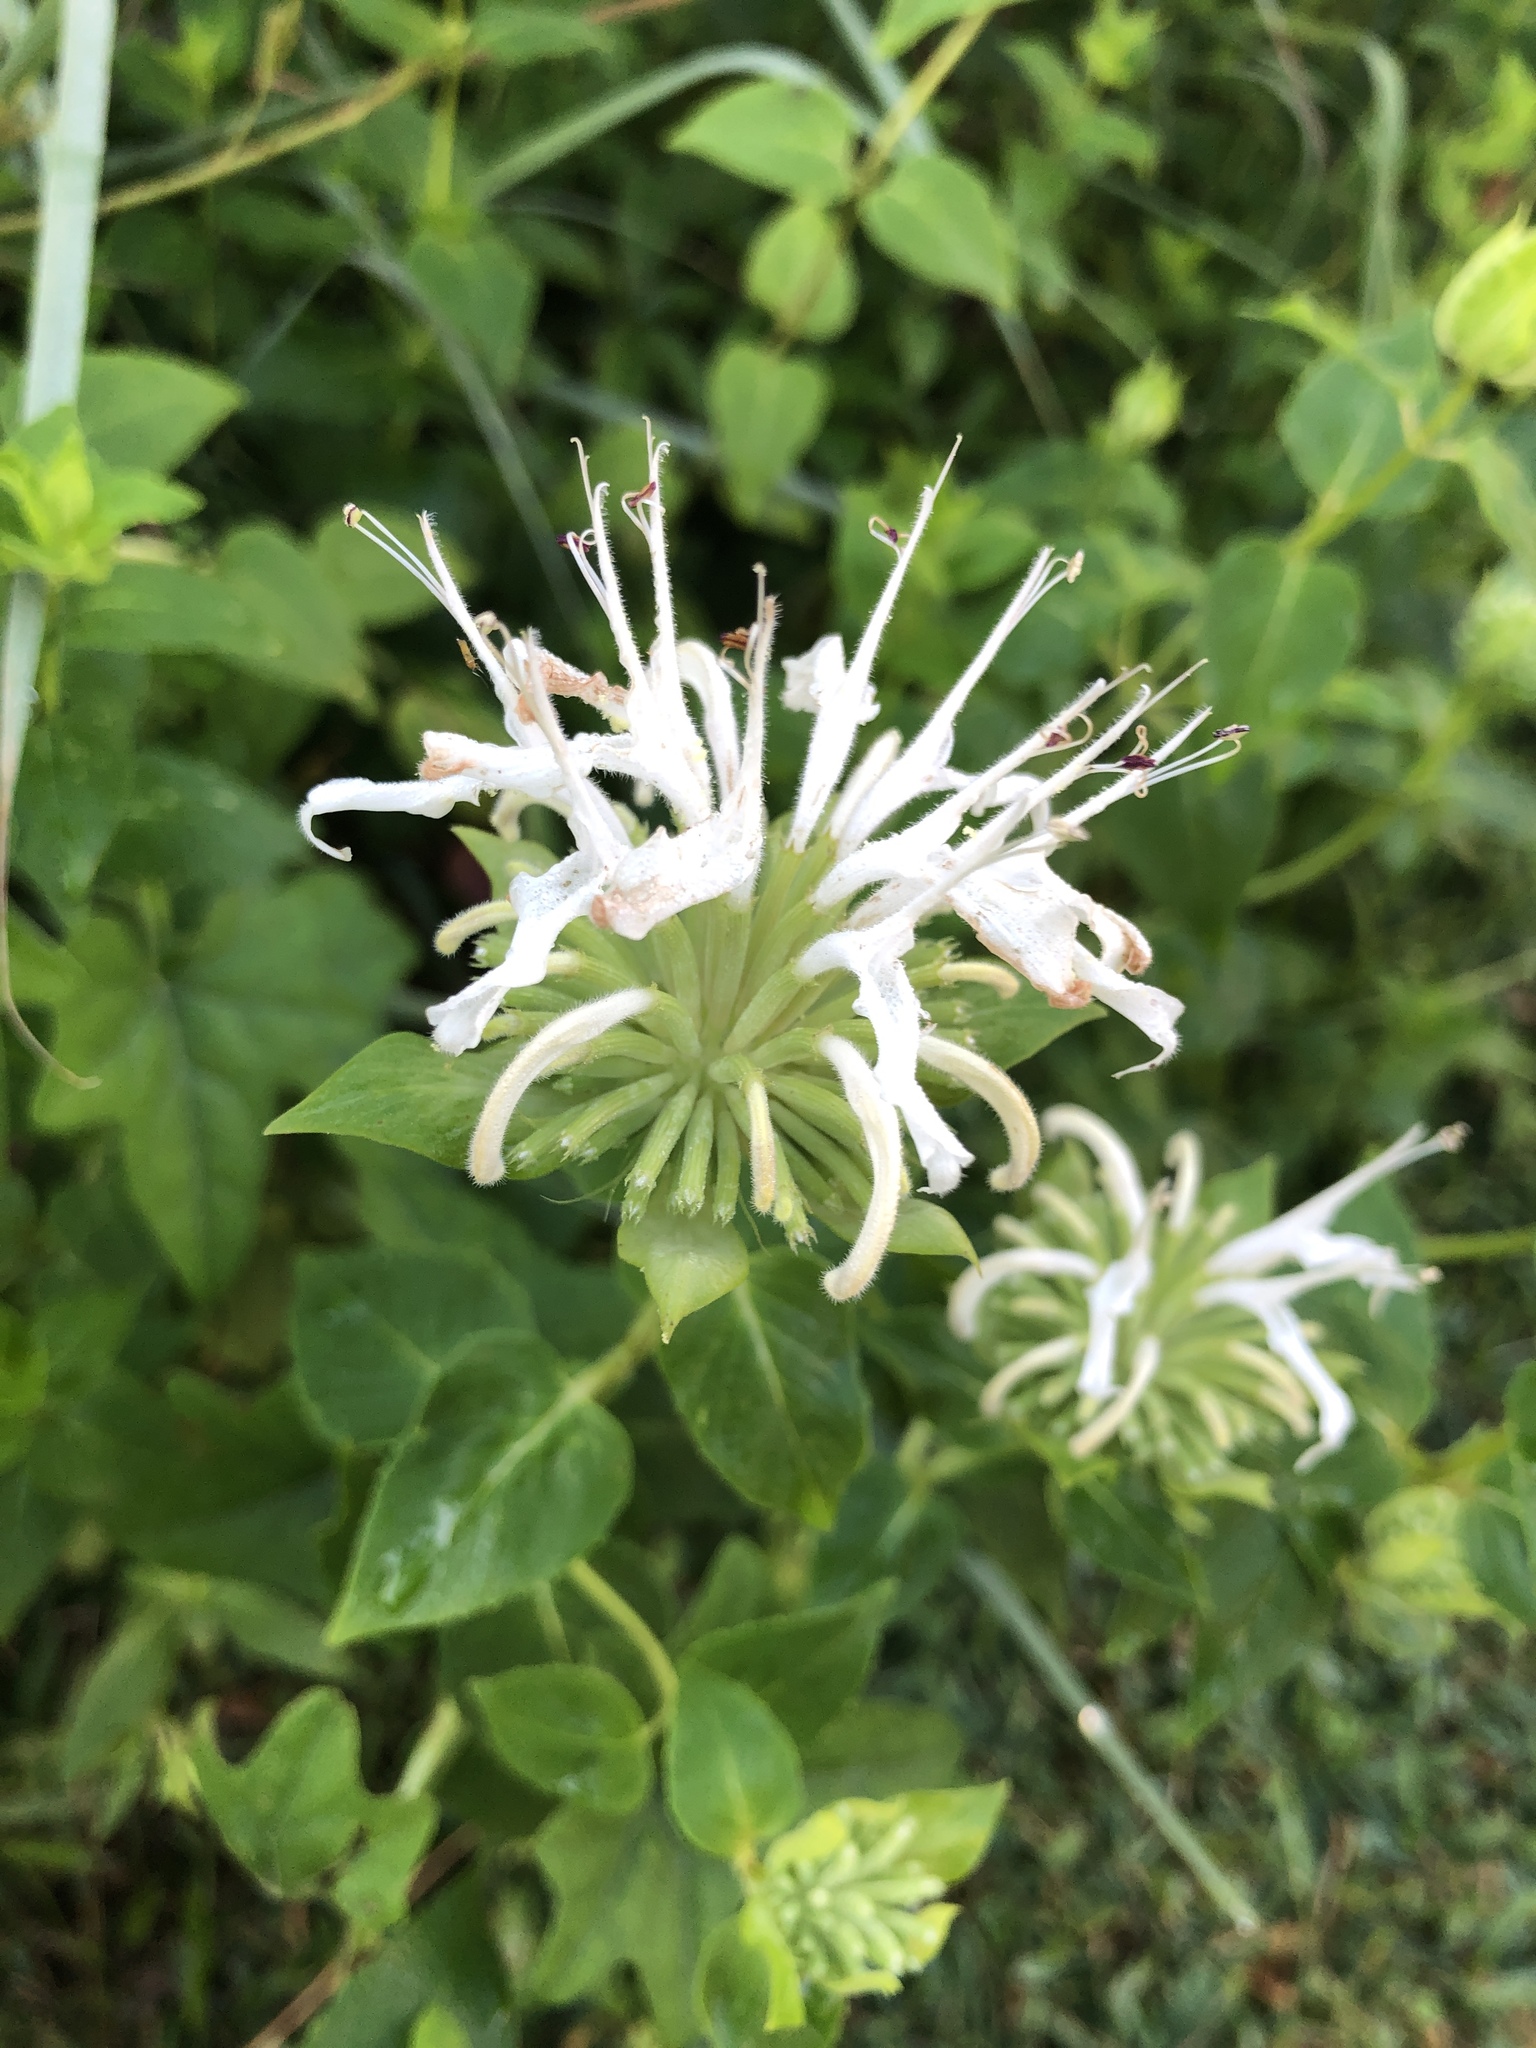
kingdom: Plantae
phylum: Tracheophyta
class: Magnoliopsida
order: Lamiales
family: Lamiaceae
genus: Monarda
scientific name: Monarda lindheimeri
